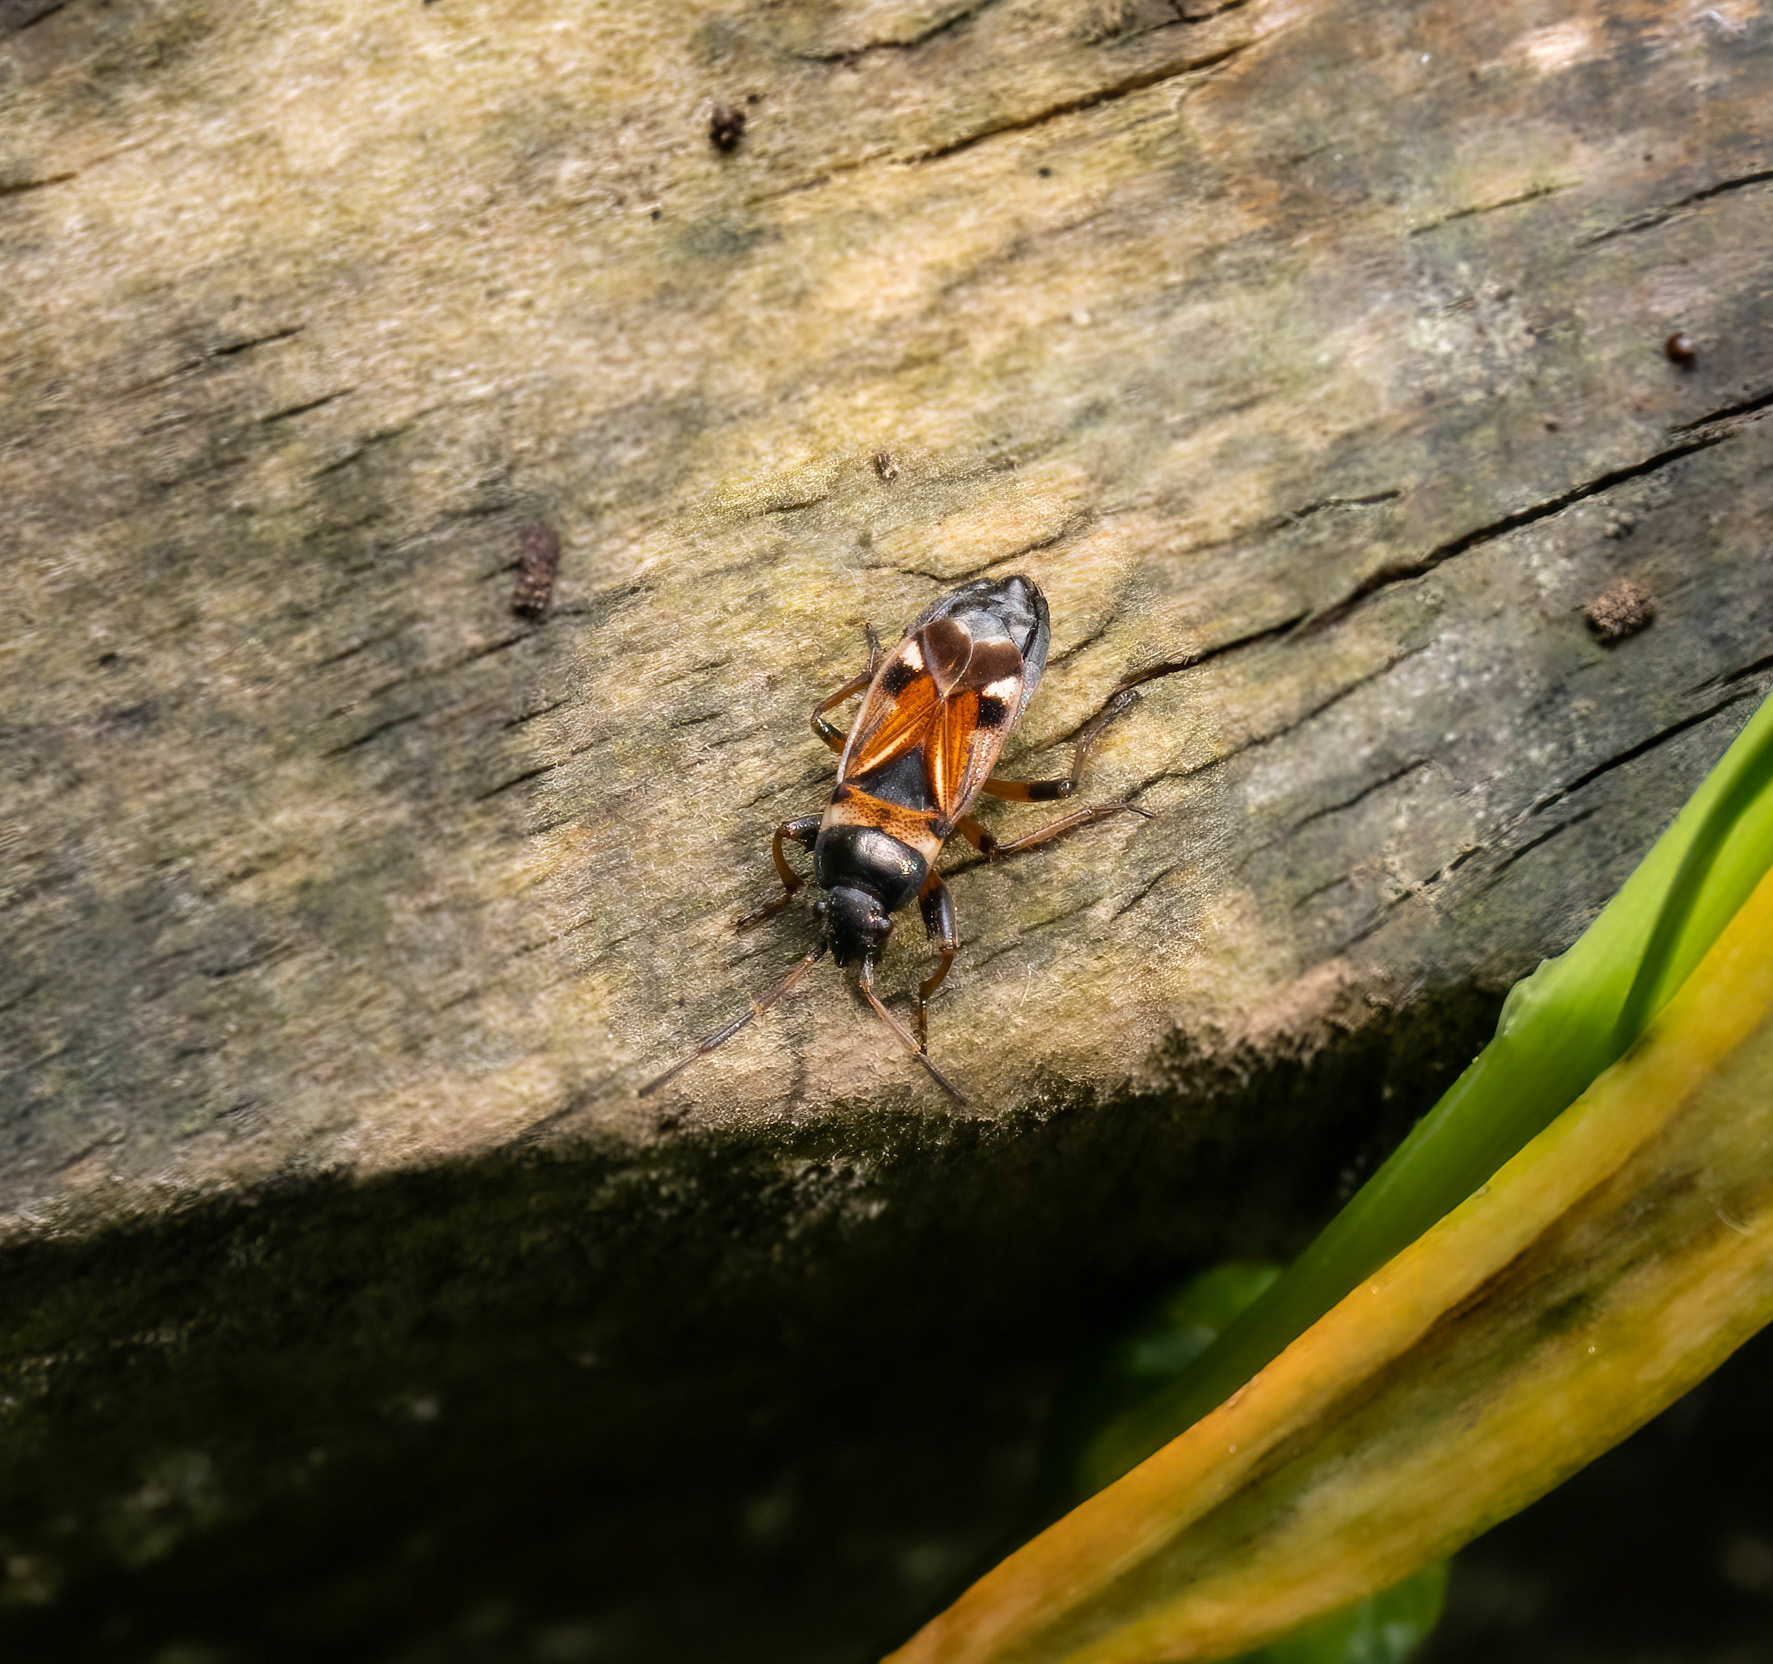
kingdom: Animalia
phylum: Arthropoda
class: Insecta
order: Hemiptera
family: Rhyparochromidae
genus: Raglius
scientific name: Raglius alboacuminatus
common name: Dirt-colored seed bug
